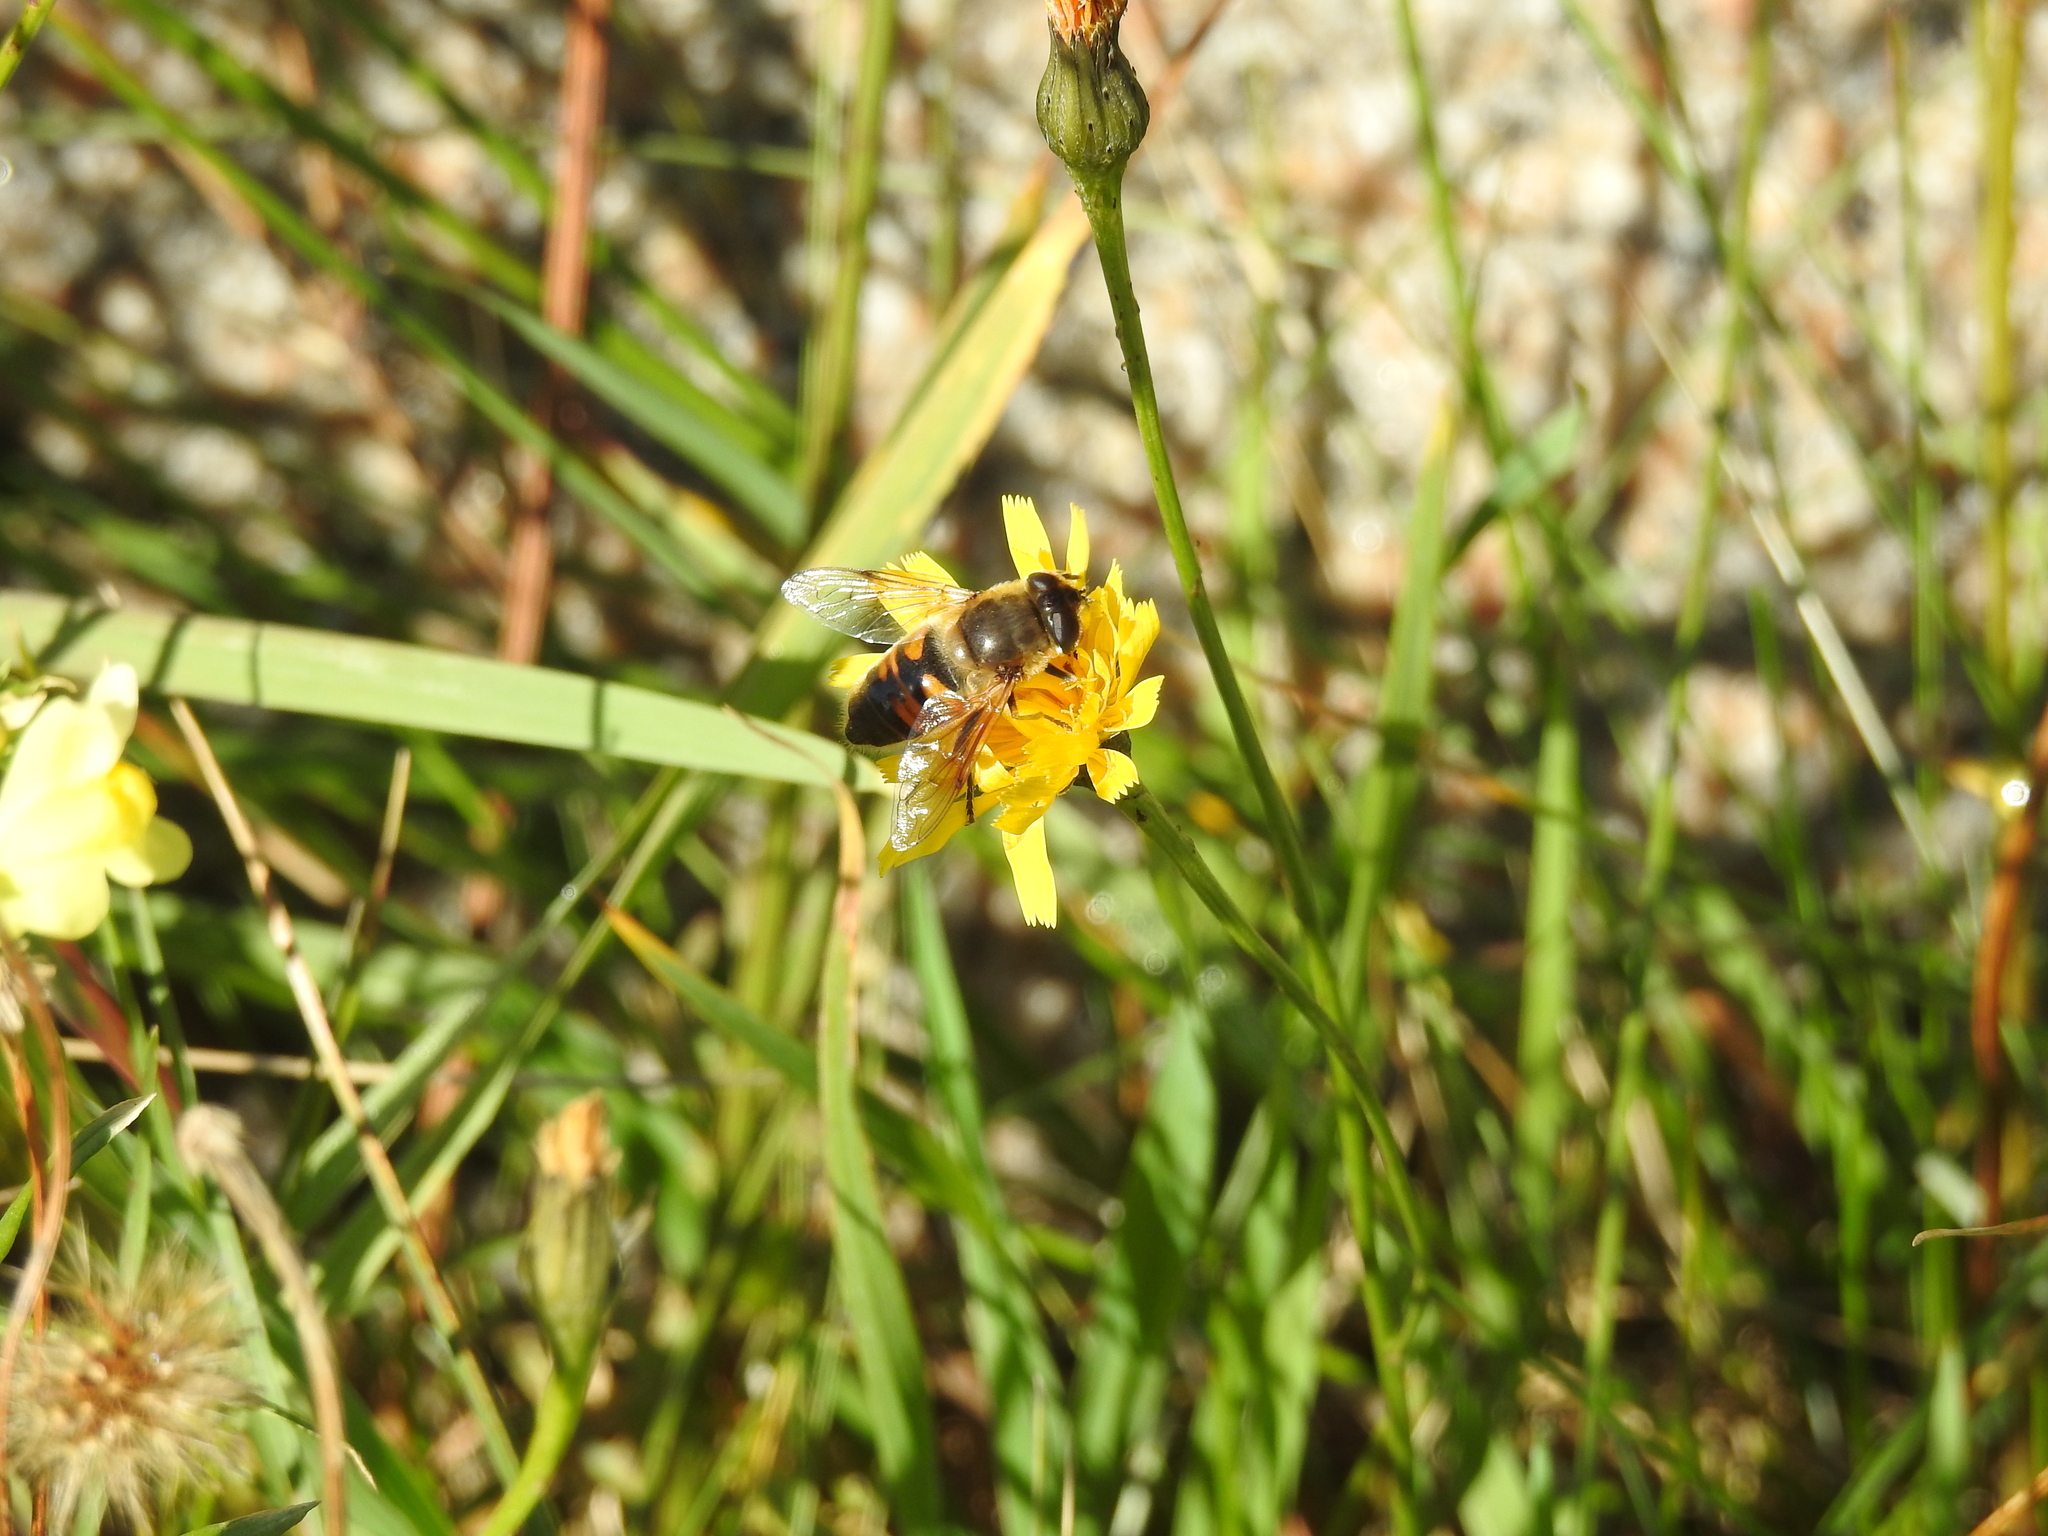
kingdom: Animalia
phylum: Arthropoda
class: Insecta
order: Diptera
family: Syrphidae
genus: Eristalis
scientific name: Eristalis tenax
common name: Drone fly
